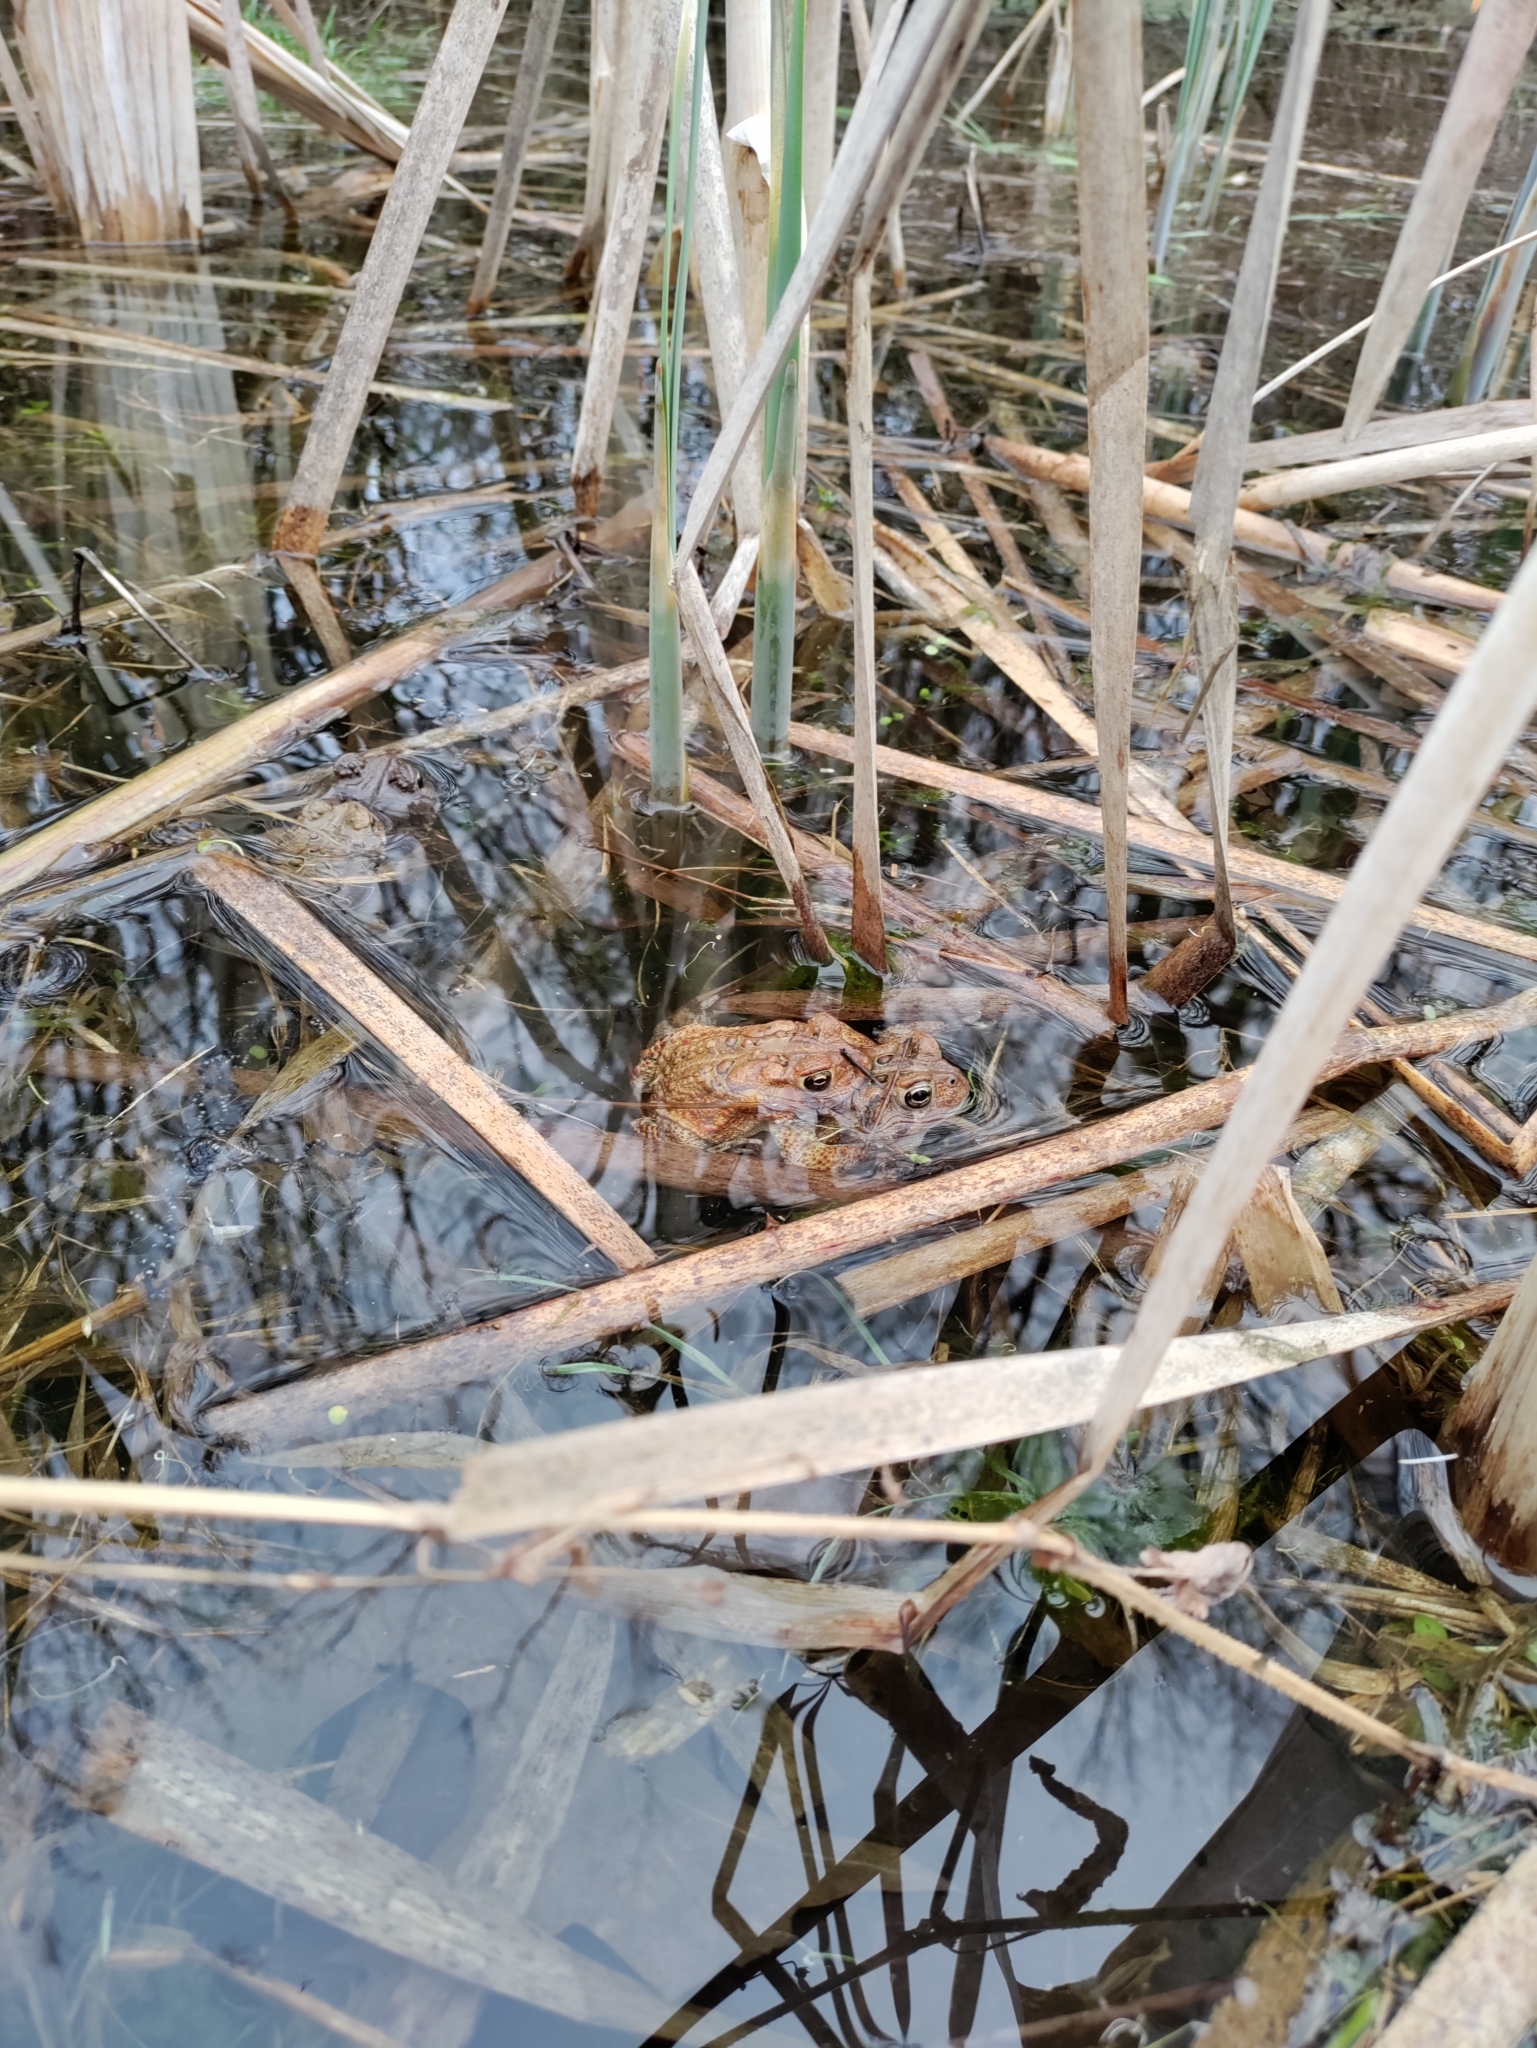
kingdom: Animalia
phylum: Chordata
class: Amphibia
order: Anura
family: Bufonidae
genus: Anaxyrus
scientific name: Anaxyrus americanus
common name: American toad
